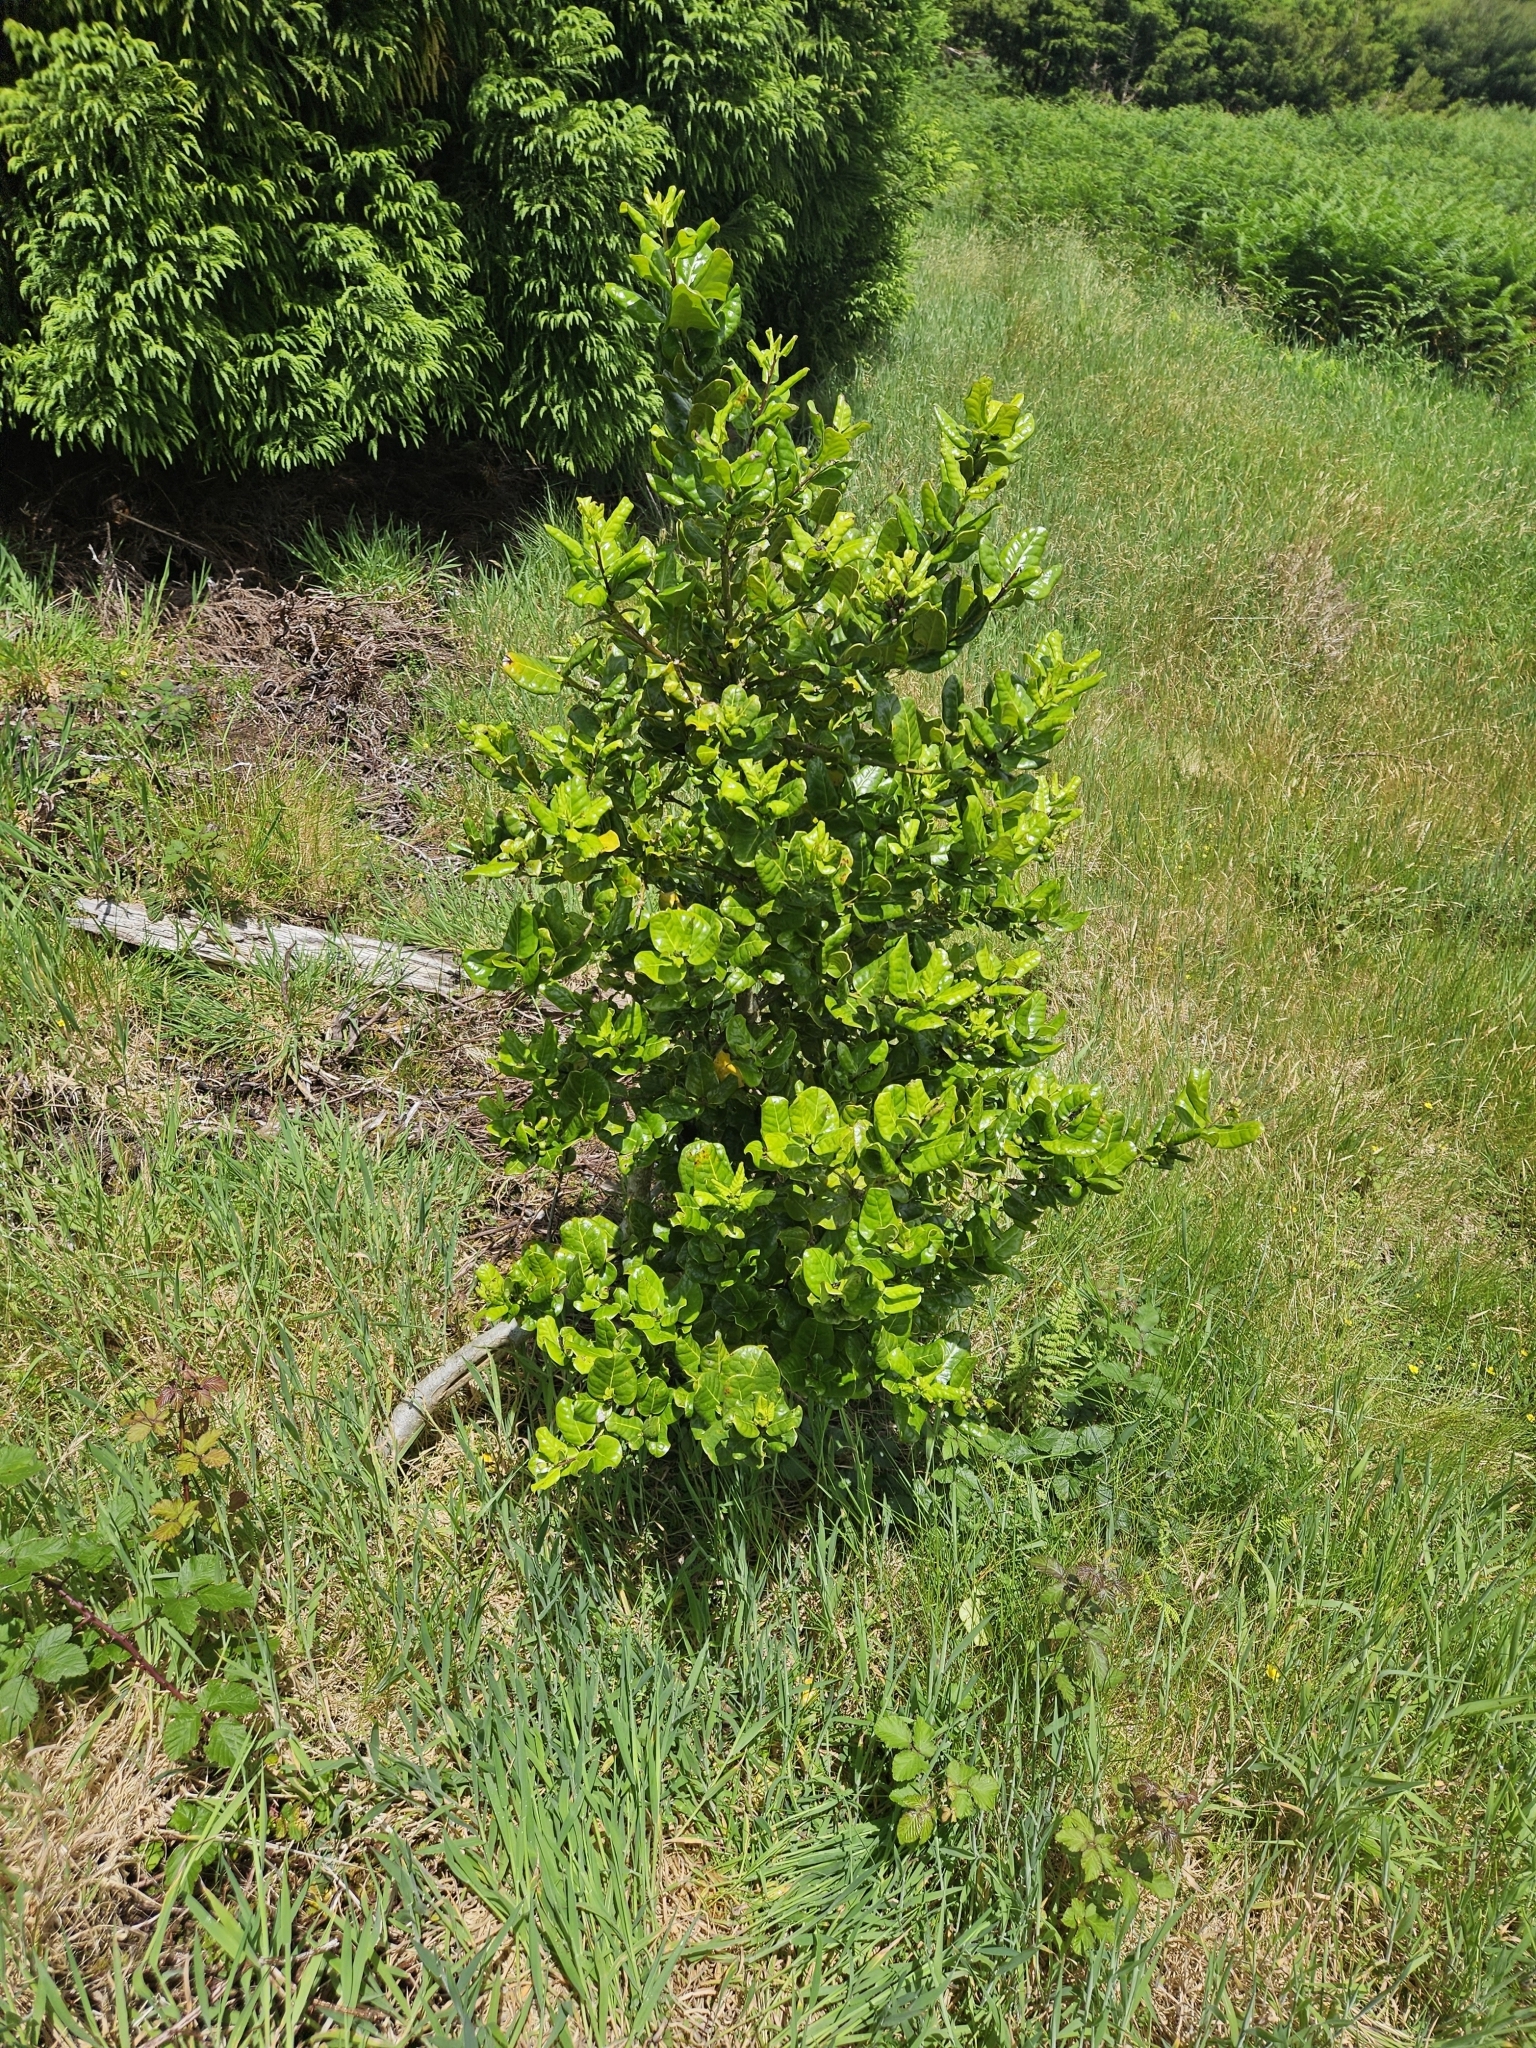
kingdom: Plantae
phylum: Tracheophyta
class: Magnoliopsida
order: Aquifoliales
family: Aquifoliaceae
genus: Ilex
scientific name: Ilex perado
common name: Madeira holly
